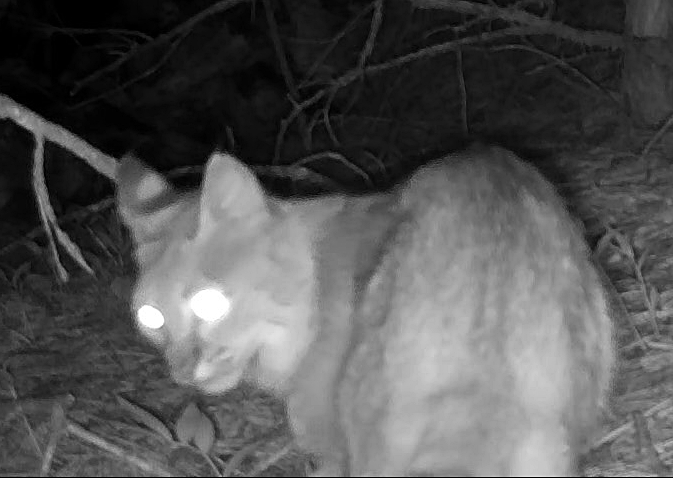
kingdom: Animalia
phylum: Chordata
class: Mammalia
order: Carnivora
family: Felidae
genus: Lynx
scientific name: Lynx rufus
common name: Bobcat
